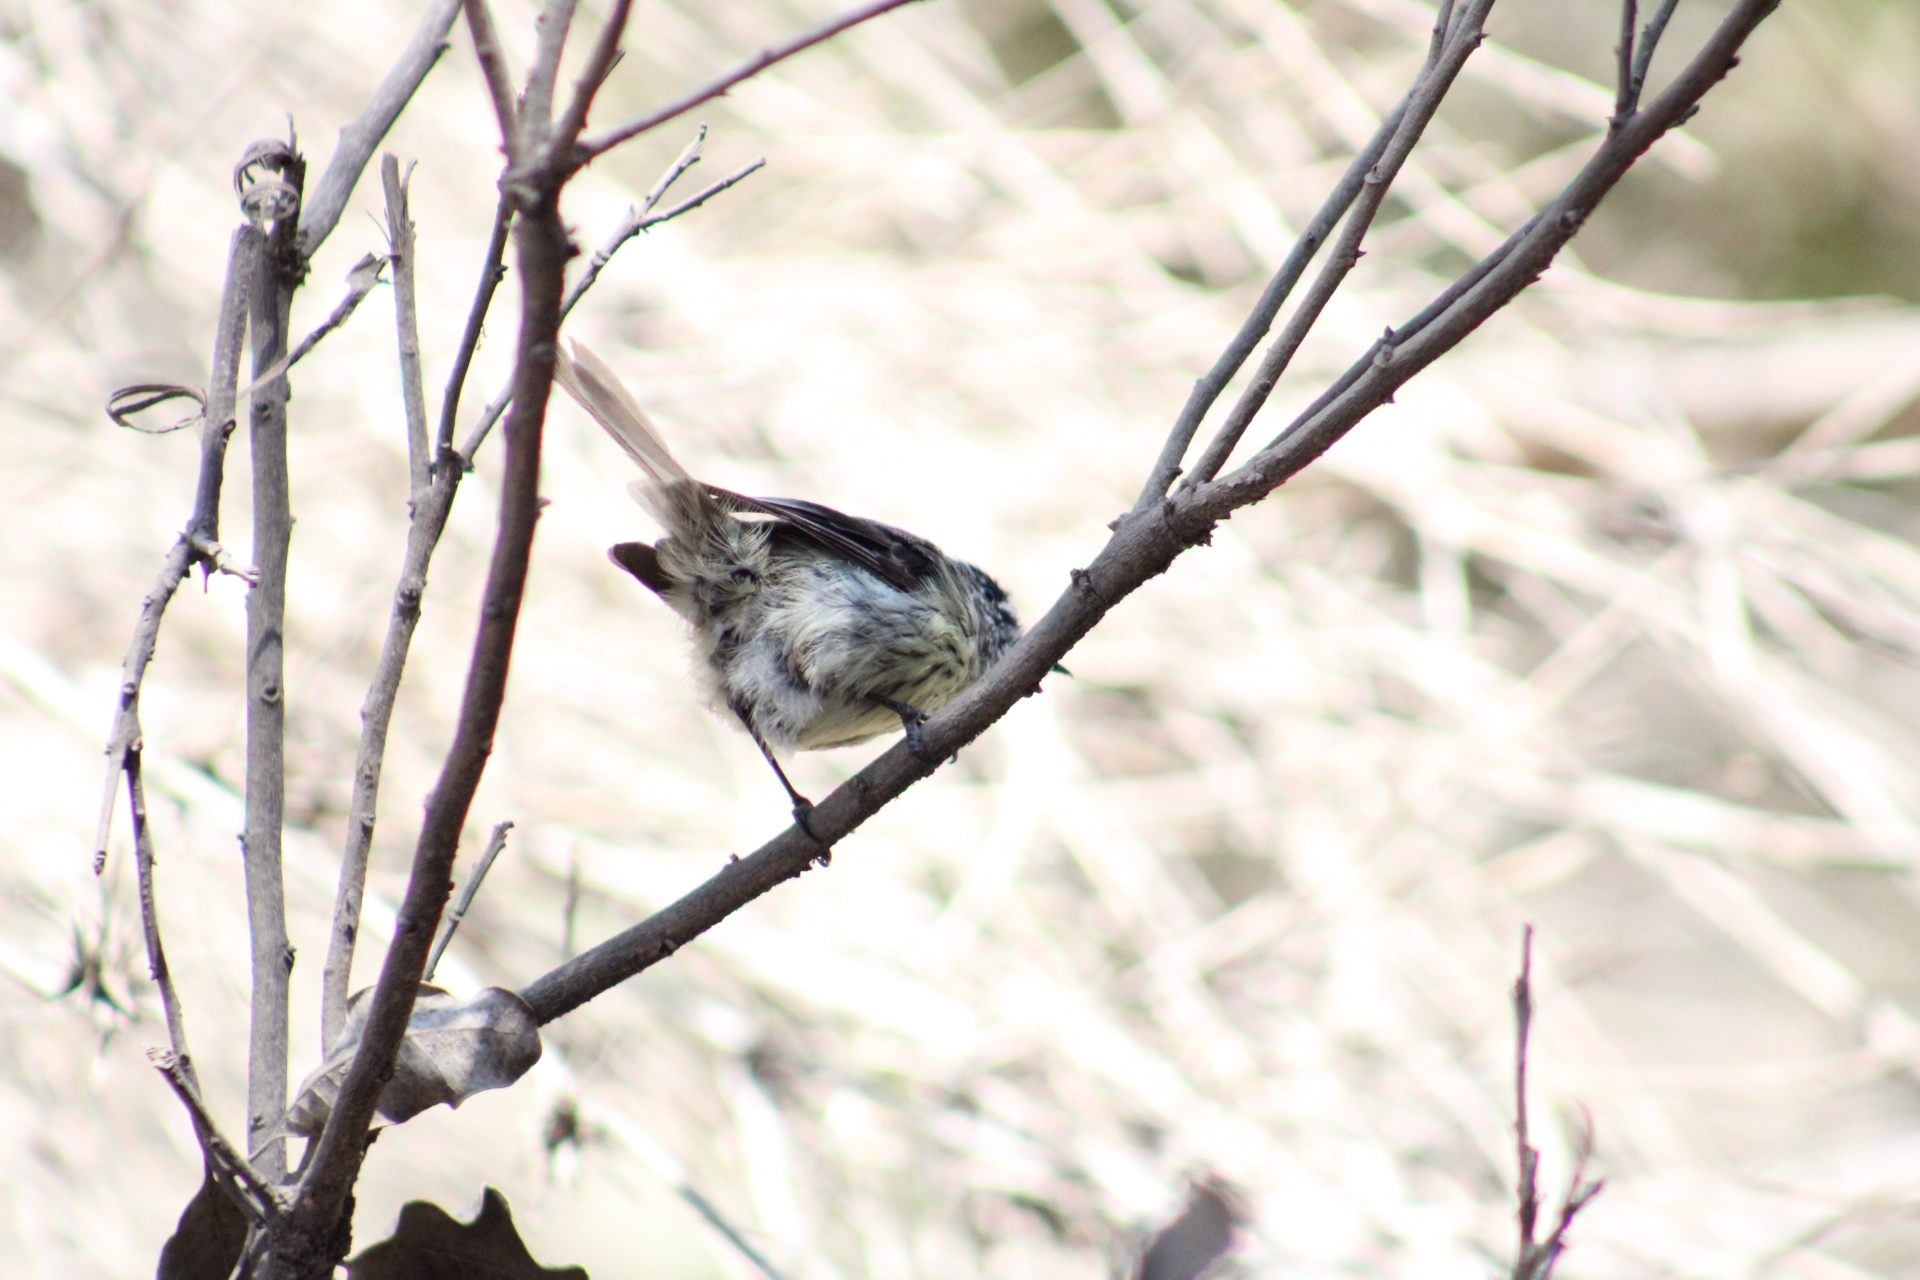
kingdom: Animalia
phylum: Chordata
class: Aves
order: Passeriformes
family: Tyrannidae
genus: Anairetes
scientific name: Anairetes parulus
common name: Tufted tit-tyrant
